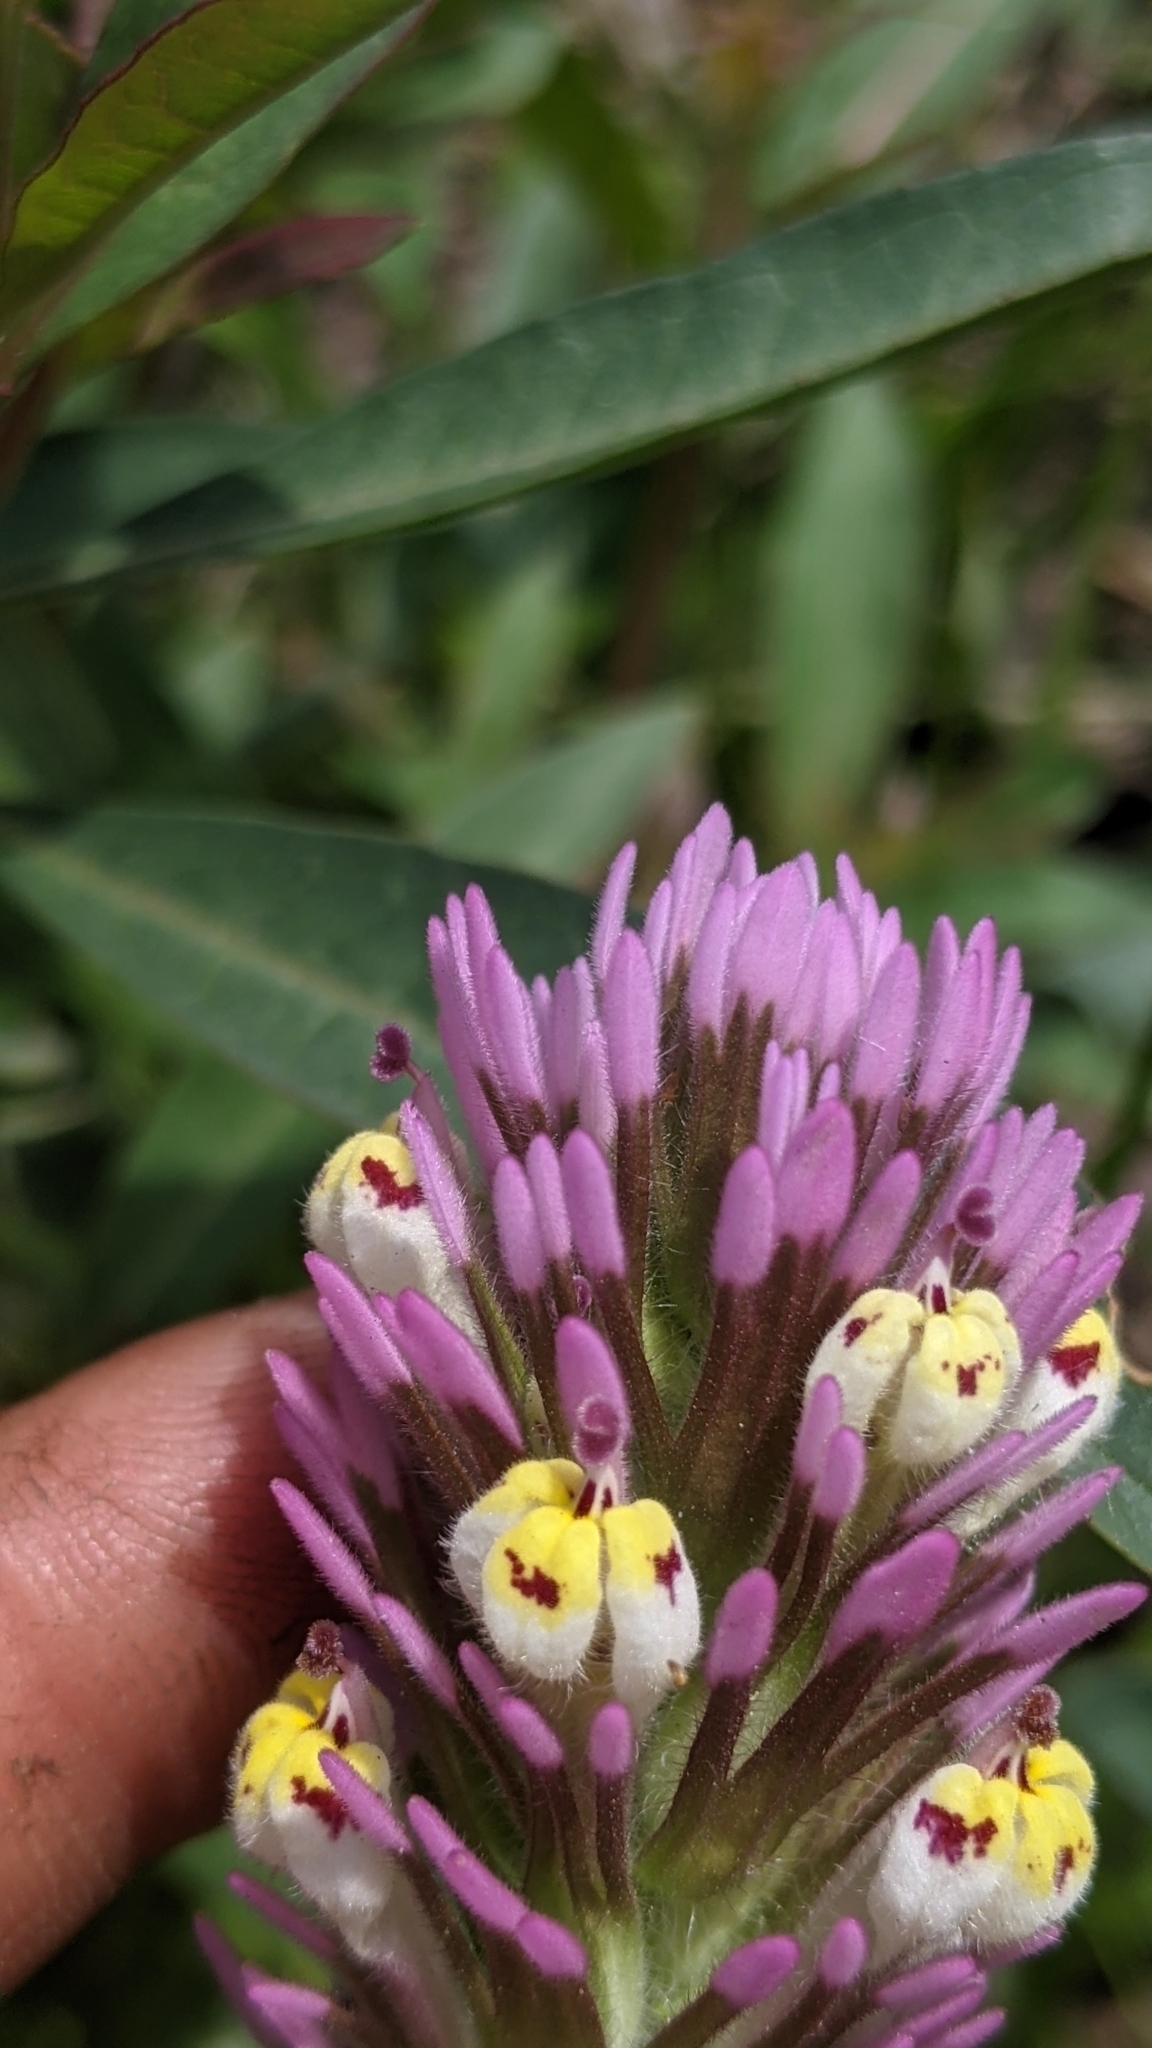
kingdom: Plantae
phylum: Tracheophyta
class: Magnoliopsida
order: Lamiales
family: Orobanchaceae
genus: Castilleja
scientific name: Castilleja exserta
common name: Purple owl-clover
